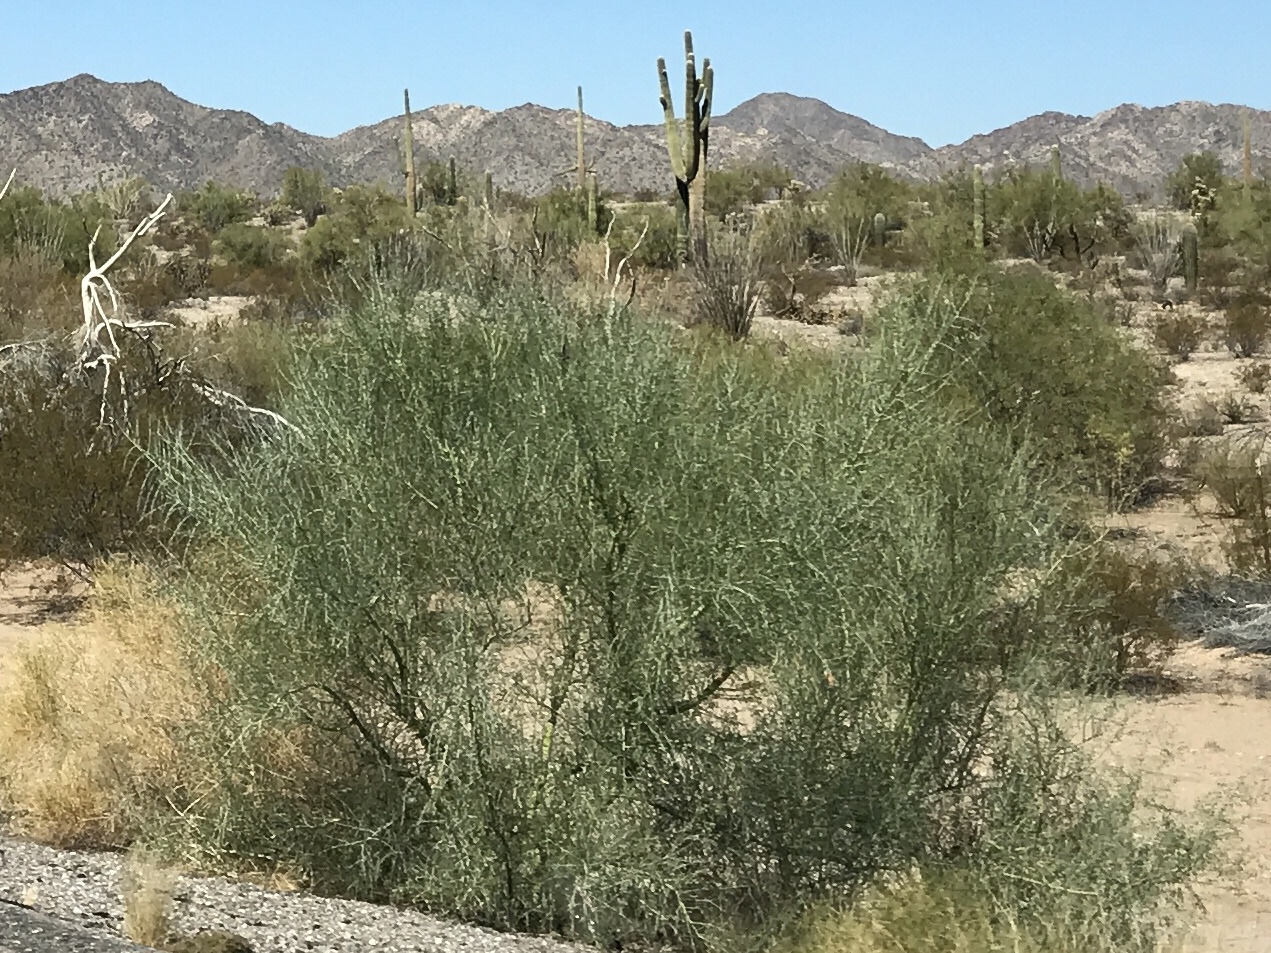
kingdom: Plantae
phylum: Tracheophyta
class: Magnoliopsida
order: Fabales
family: Fabaceae
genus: Parkinsonia
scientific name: Parkinsonia florida
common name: Blue paloverde
